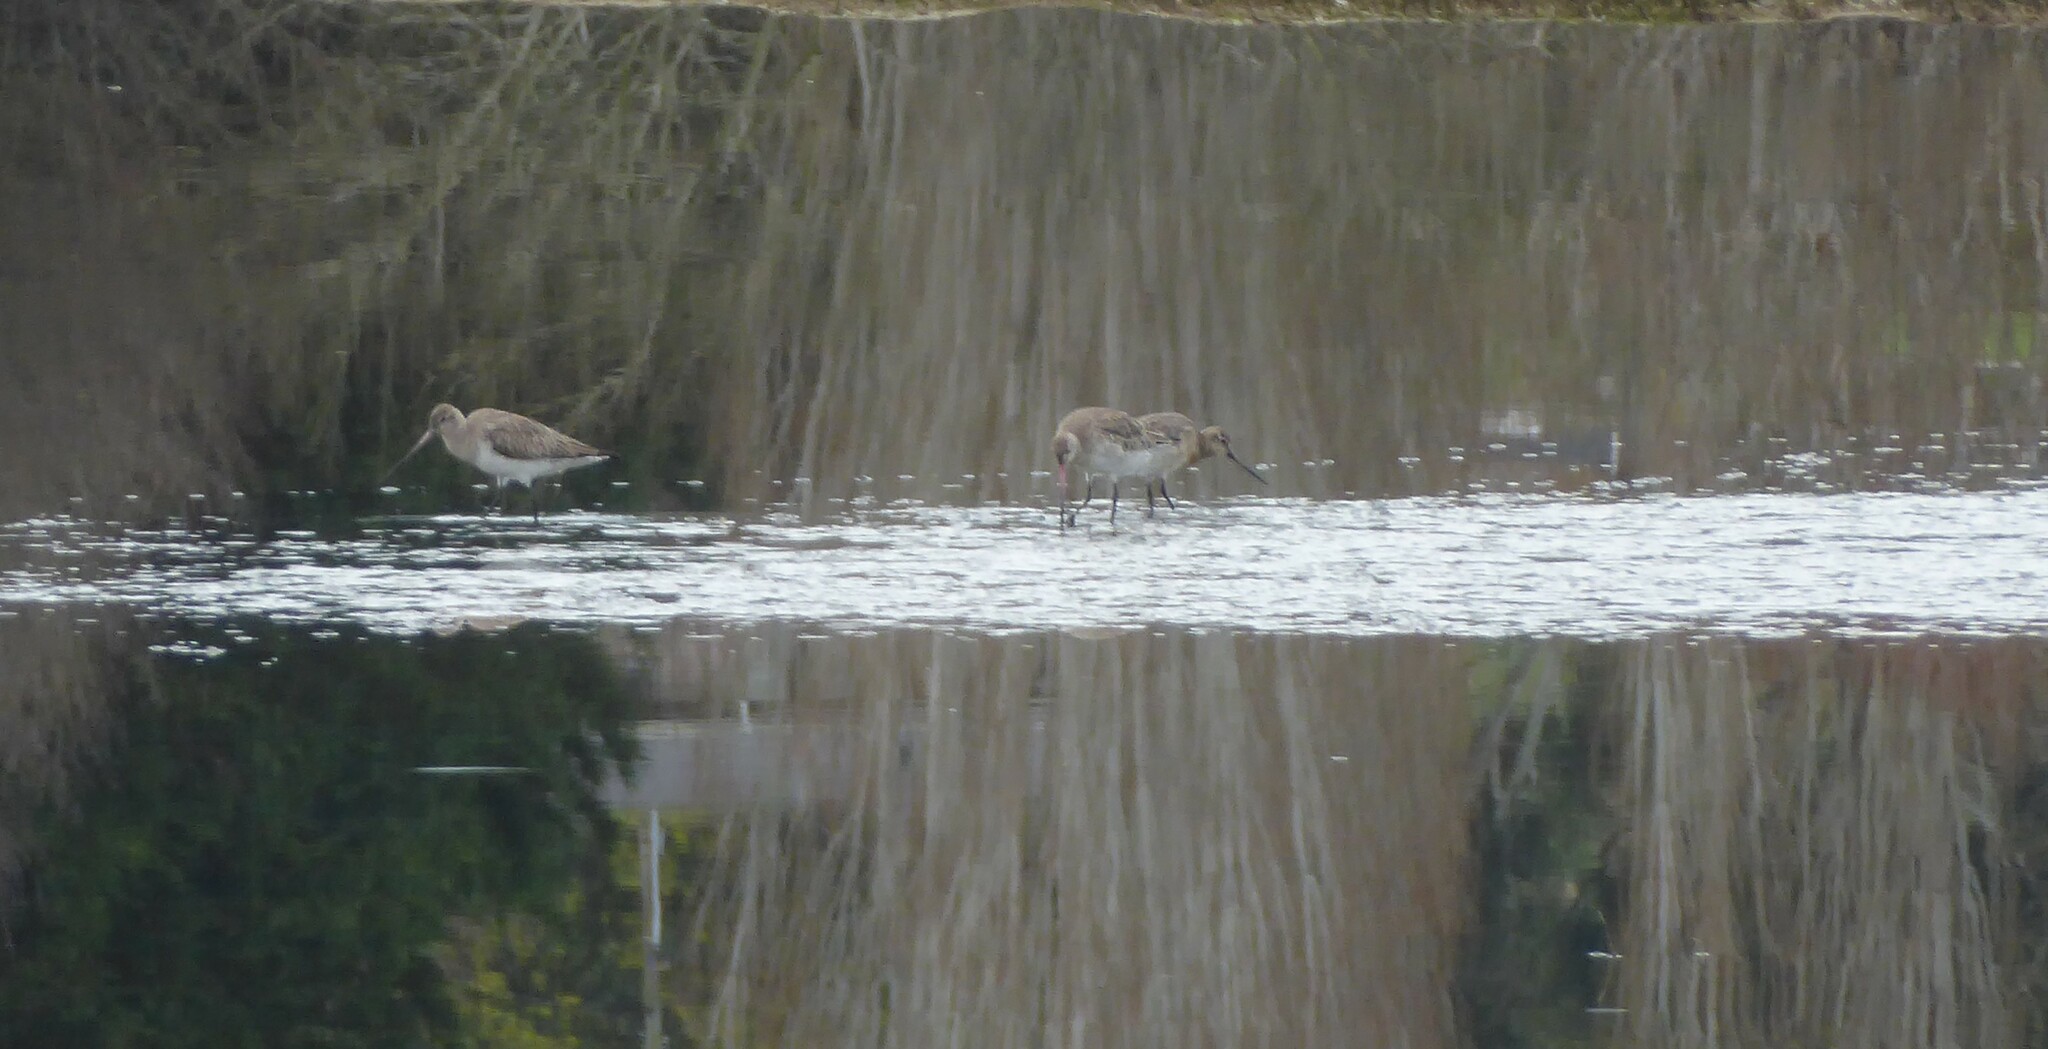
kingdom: Animalia
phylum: Chordata
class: Aves
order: Charadriiformes
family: Scolopacidae
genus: Limosa
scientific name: Limosa lapponica
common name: Bar-tailed godwit
